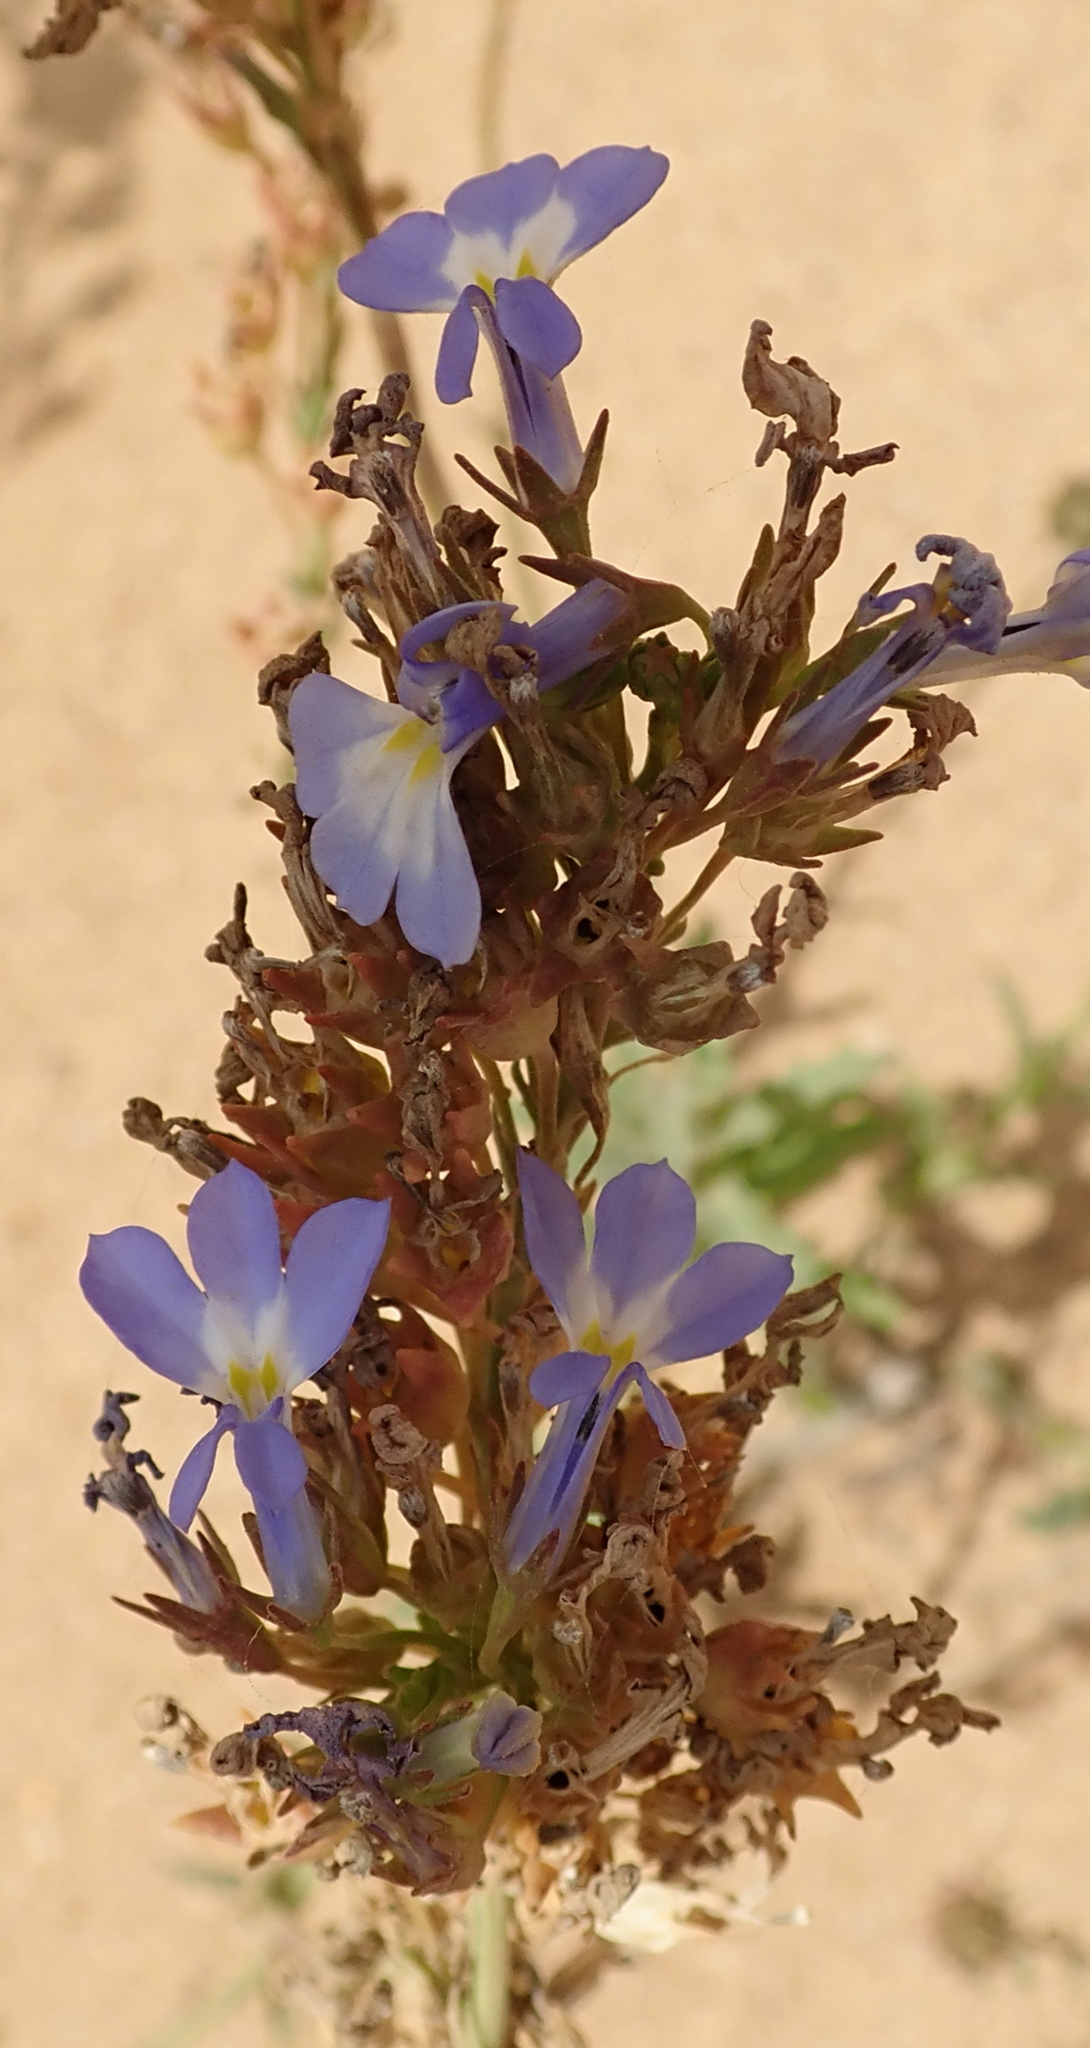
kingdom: Plantae
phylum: Tracheophyta
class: Magnoliopsida
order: Asterales
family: Campanulaceae
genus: Lobelia
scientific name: Lobelia comosa
